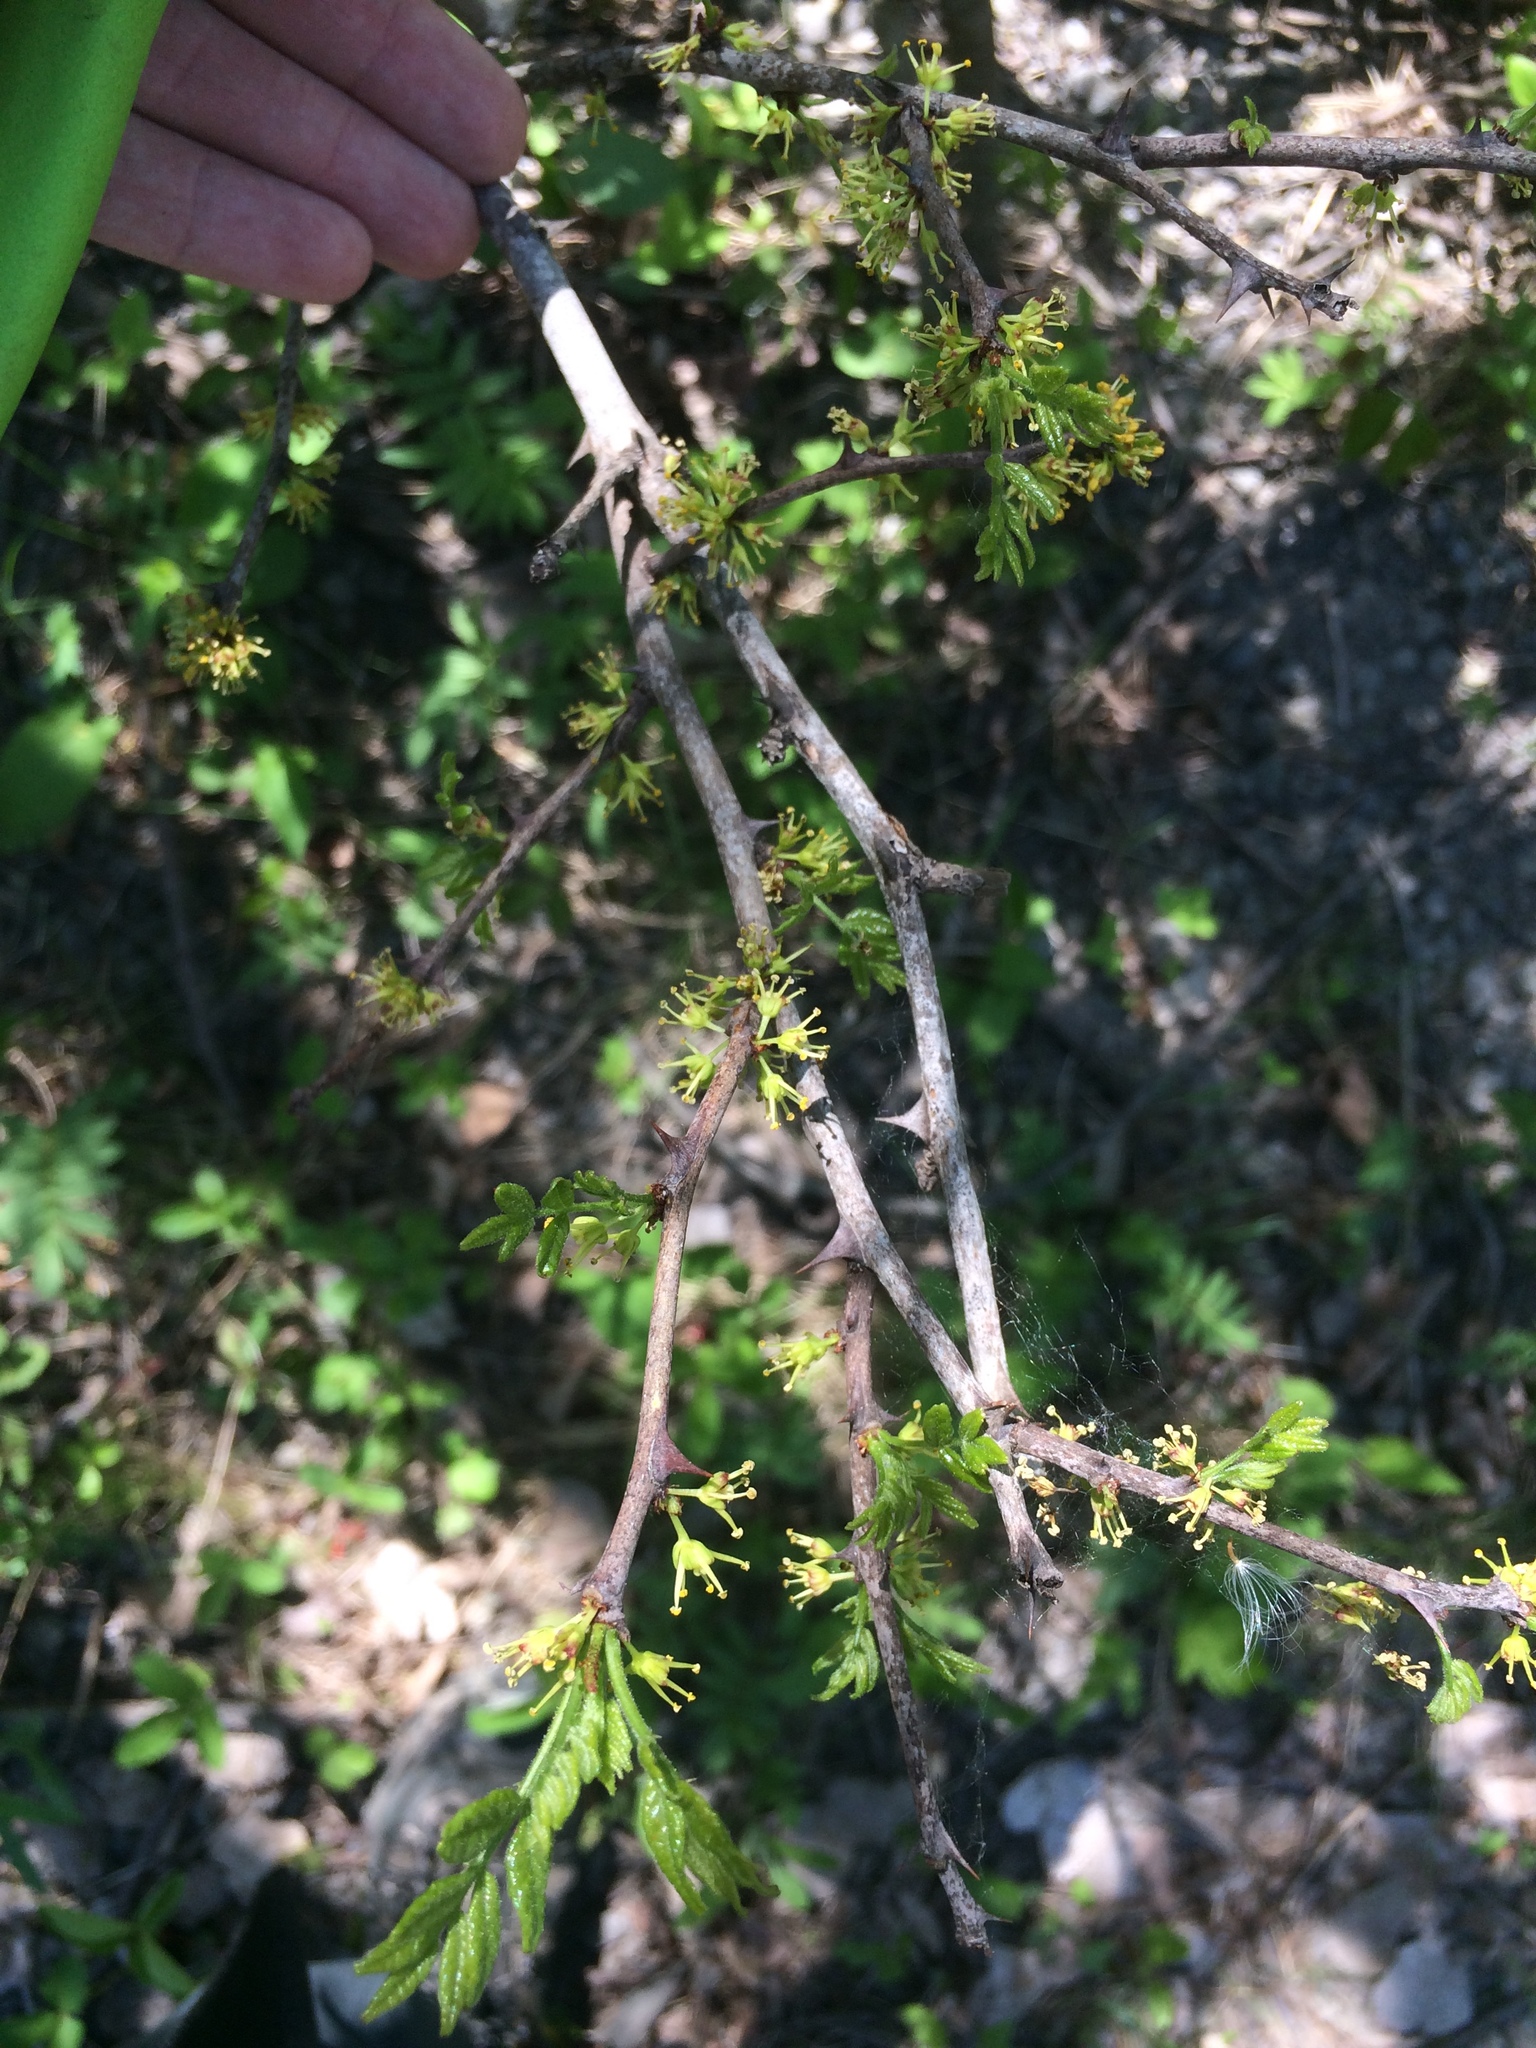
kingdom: Plantae
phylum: Tracheophyta
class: Magnoliopsida
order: Sapindales
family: Rutaceae
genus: Zanthoxylum
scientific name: Zanthoxylum americanum
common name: Northern prickly-ash
